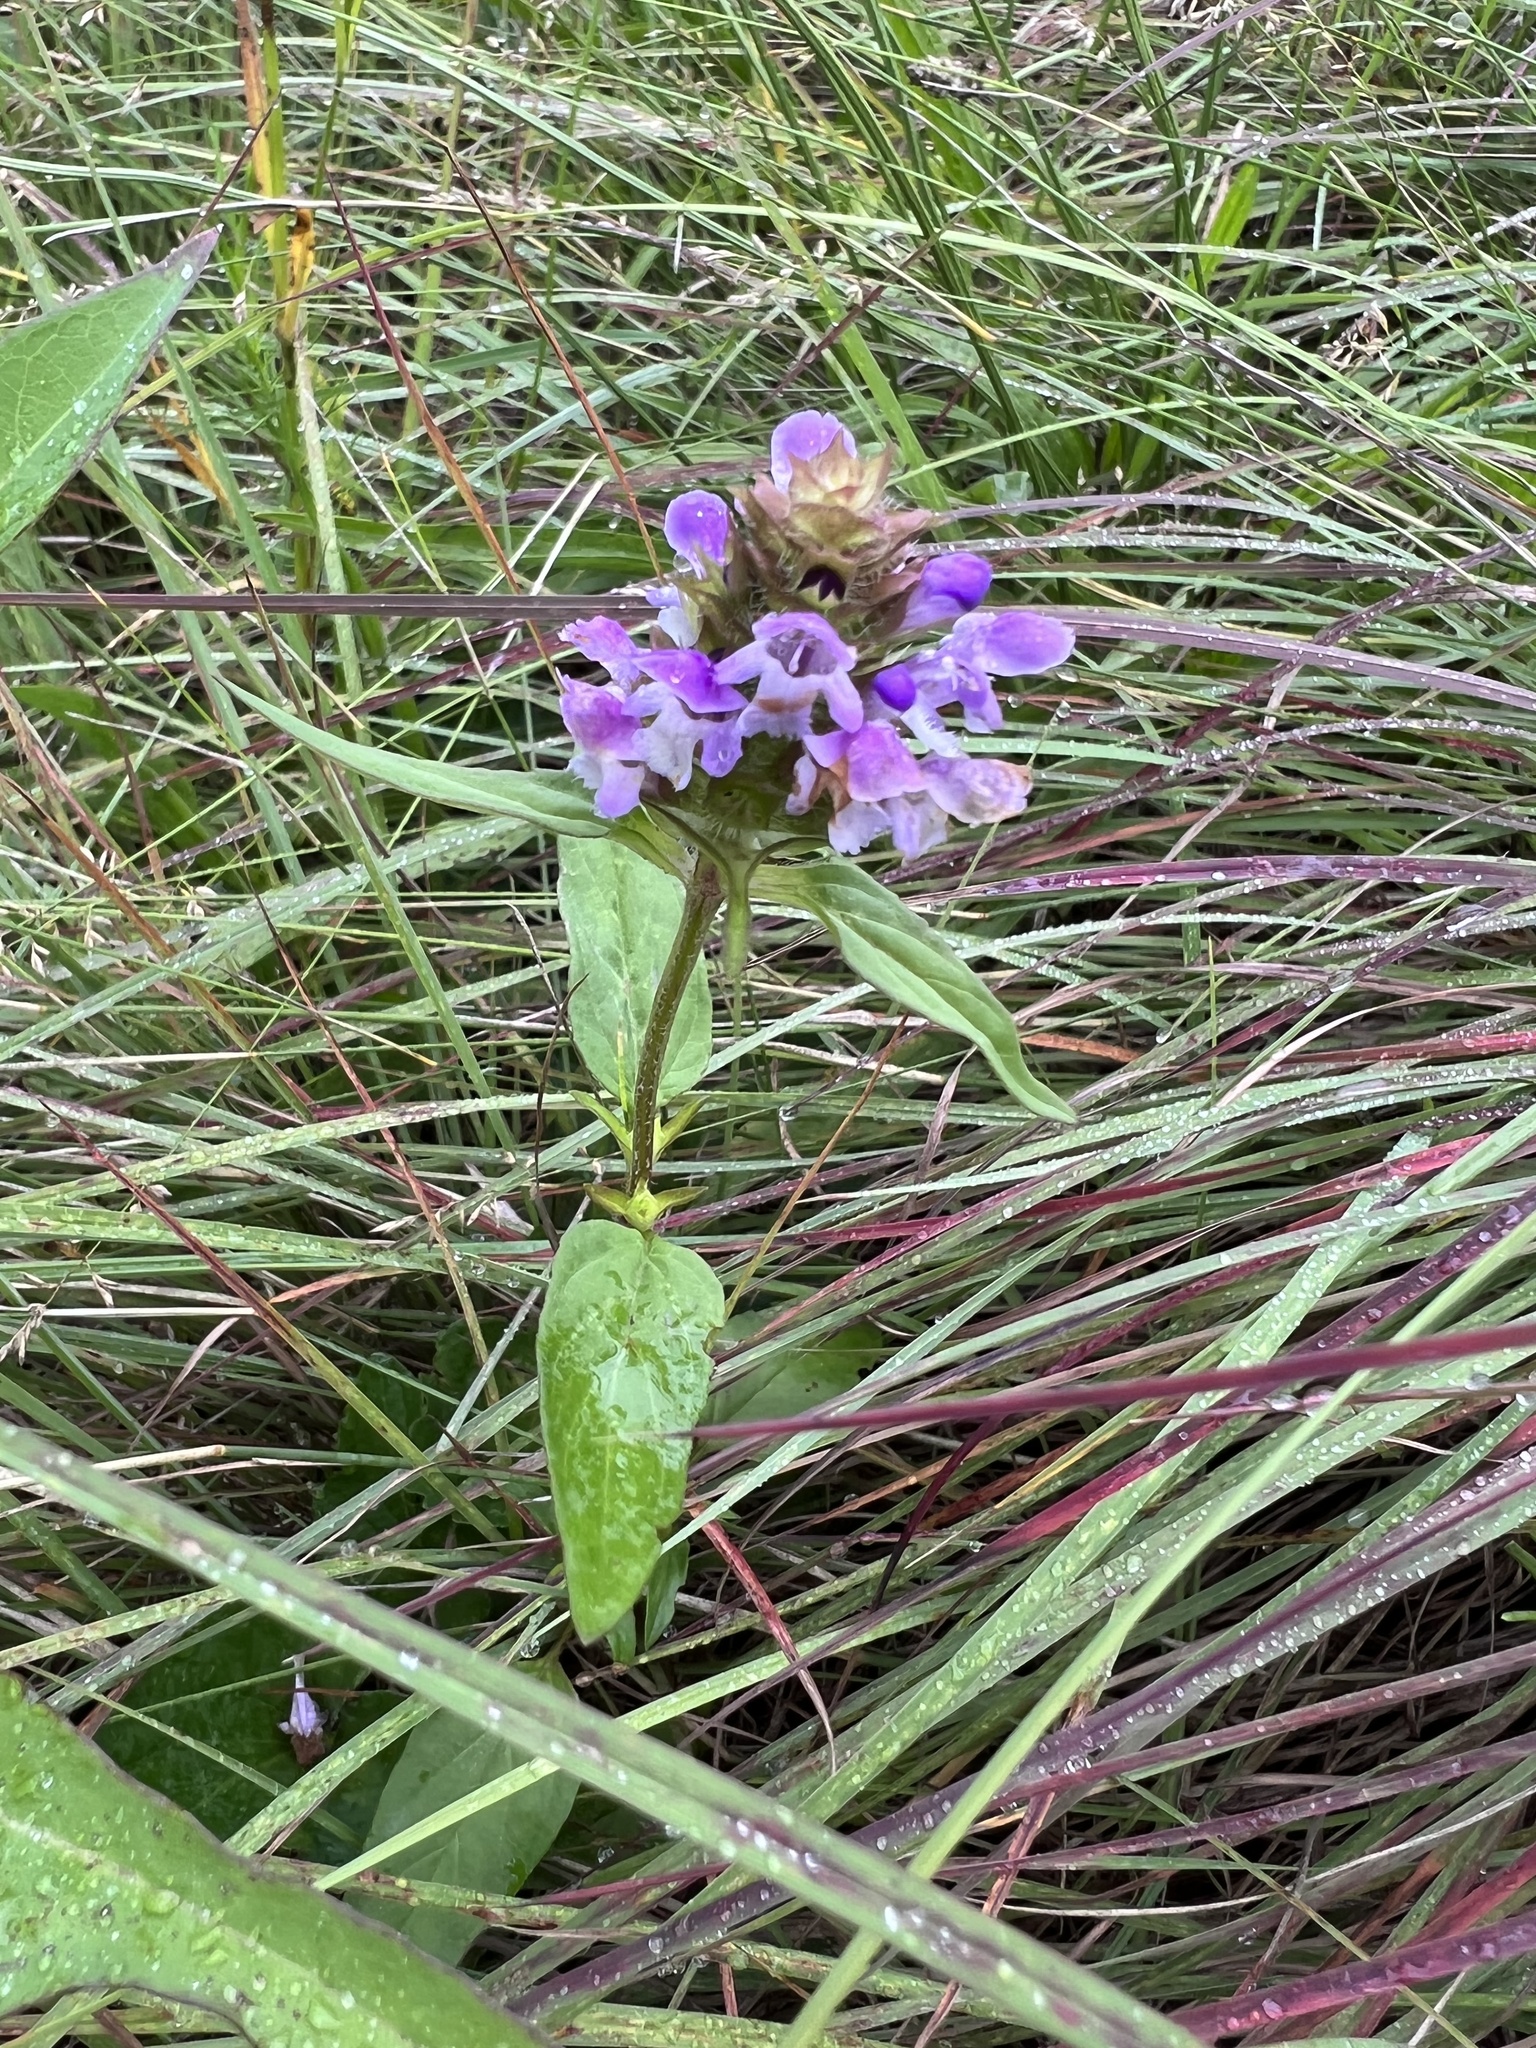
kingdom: Plantae
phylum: Tracheophyta
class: Magnoliopsida
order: Lamiales
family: Lamiaceae
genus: Prunella
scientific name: Prunella vulgaris
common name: Heal-all
